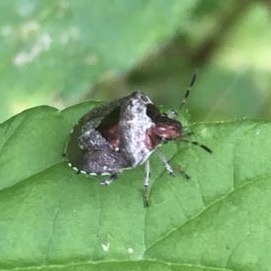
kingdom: Animalia
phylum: Arthropoda
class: Insecta
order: Hemiptera
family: Pentatomidae
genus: Eysarcoris
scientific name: Eysarcoris venustissimus
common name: Woundwort shieldbug
